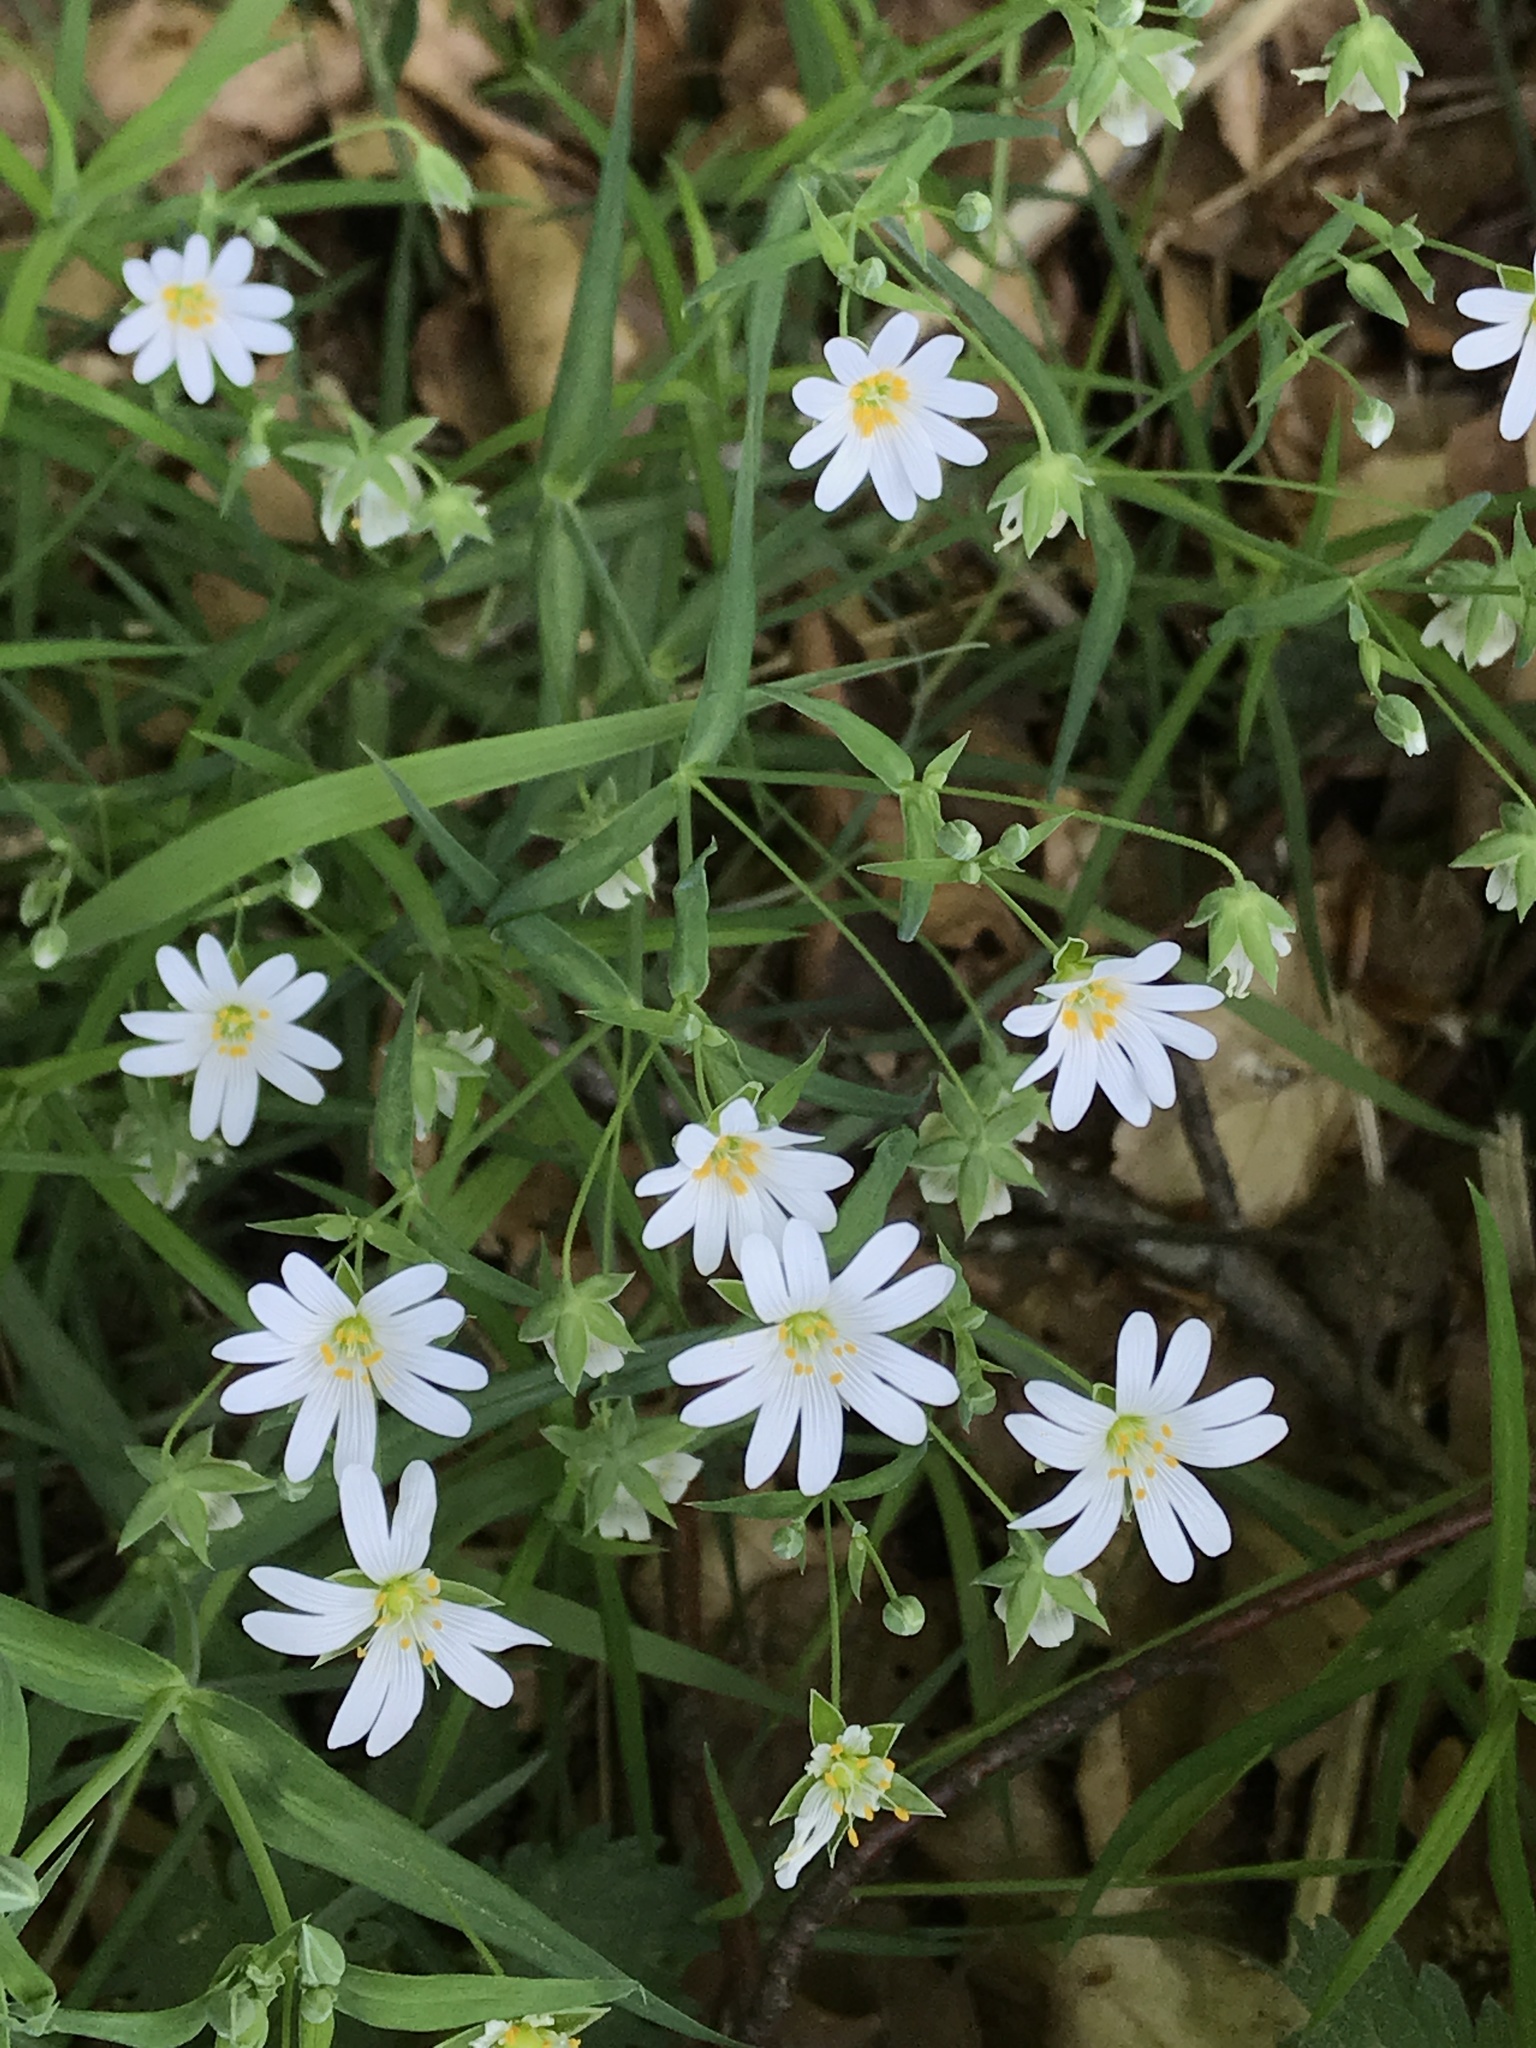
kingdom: Plantae
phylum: Tracheophyta
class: Magnoliopsida
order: Caryophyllales
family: Caryophyllaceae
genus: Rabelera
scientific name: Rabelera holostea
